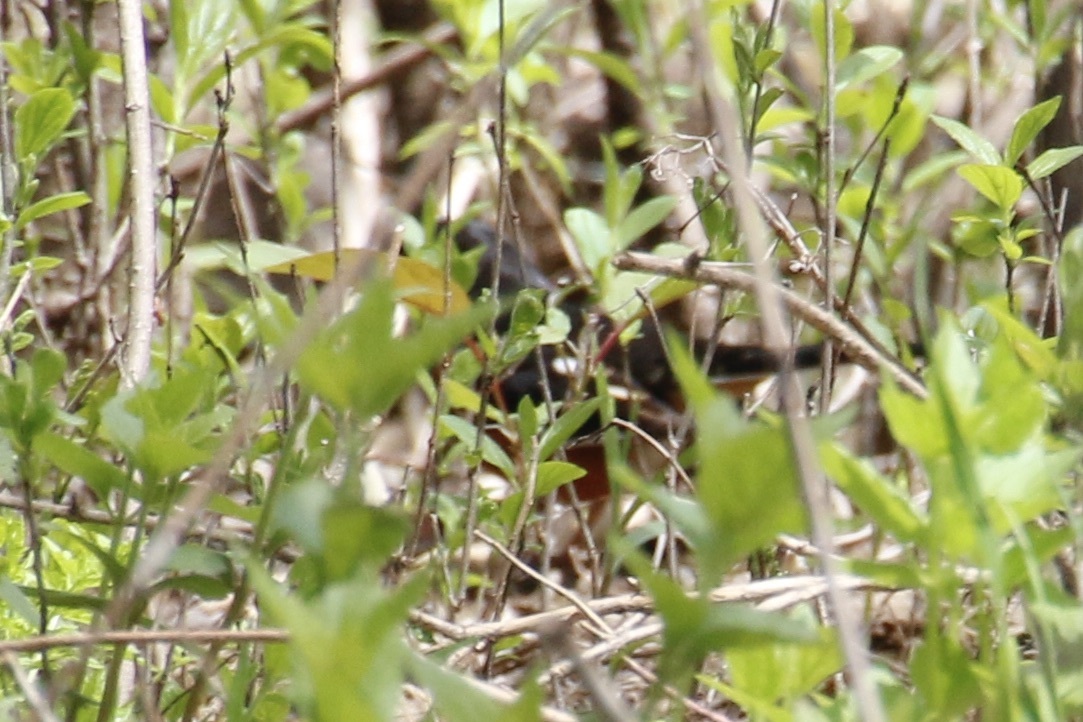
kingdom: Animalia
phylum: Chordata
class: Aves
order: Passeriformes
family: Passerellidae
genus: Pipilo
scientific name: Pipilo erythrophthalmus
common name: Eastern towhee
